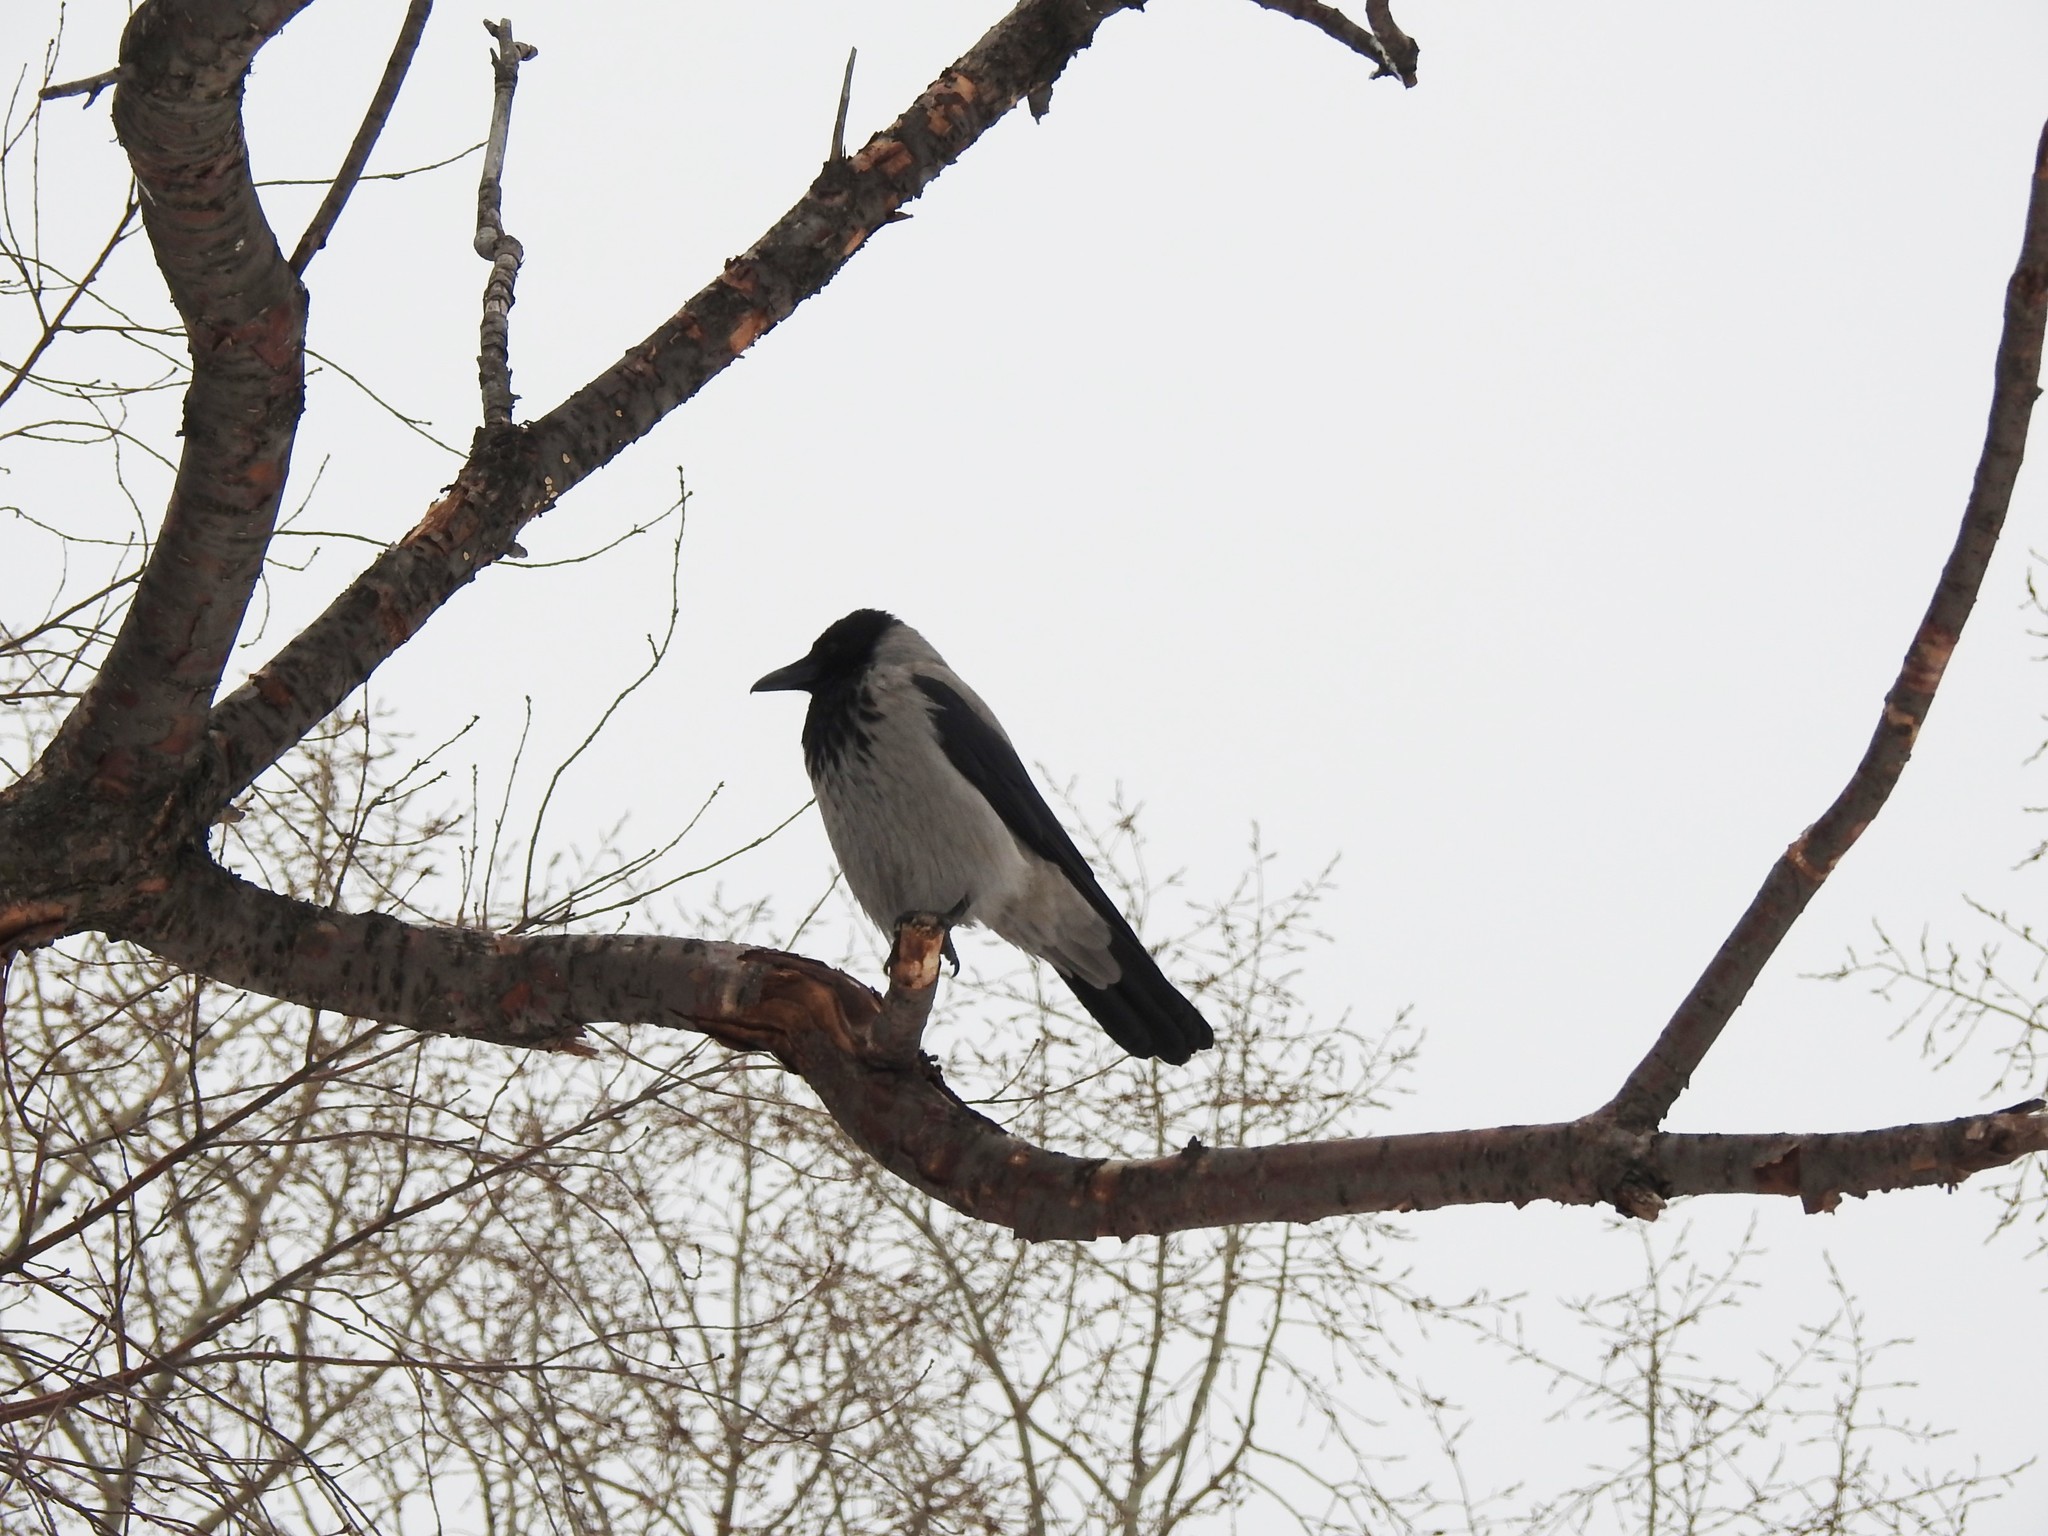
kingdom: Animalia
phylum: Chordata
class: Aves
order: Passeriformes
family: Corvidae
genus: Corvus
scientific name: Corvus cornix
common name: Hooded crow
